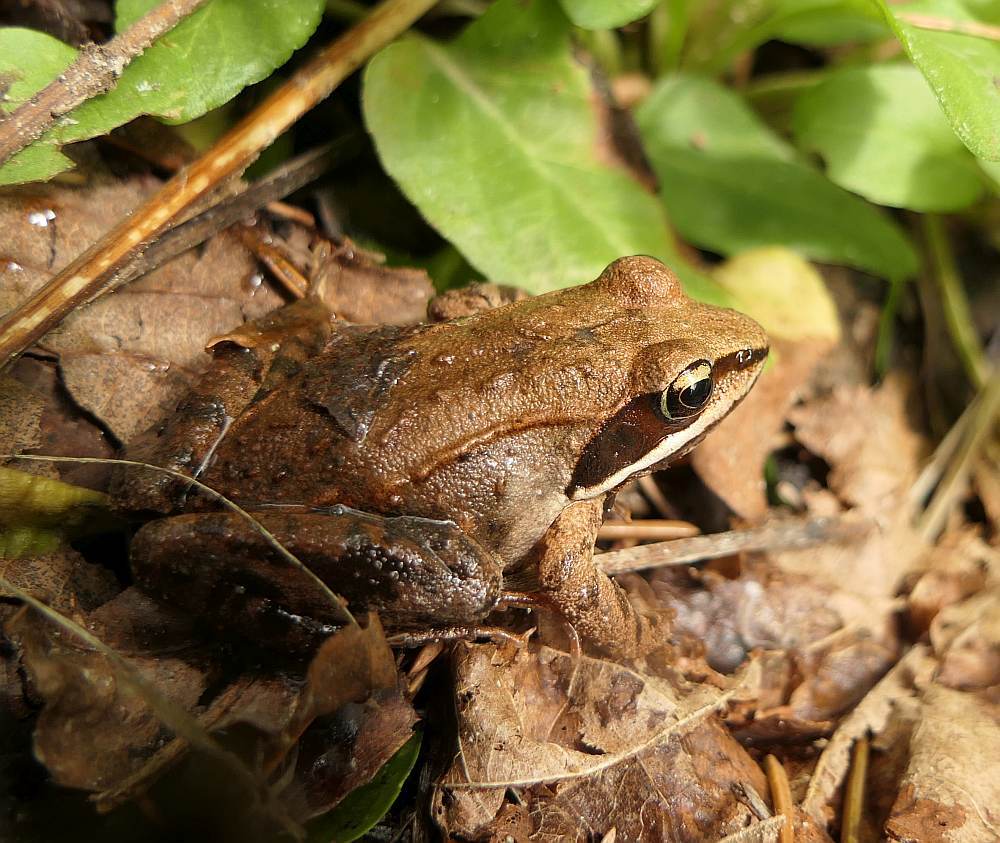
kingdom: Animalia
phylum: Chordata
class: Amphibia
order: Anura
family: Ranidae
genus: Lithobates
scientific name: Lithobates sylvaticus
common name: Wood frog
